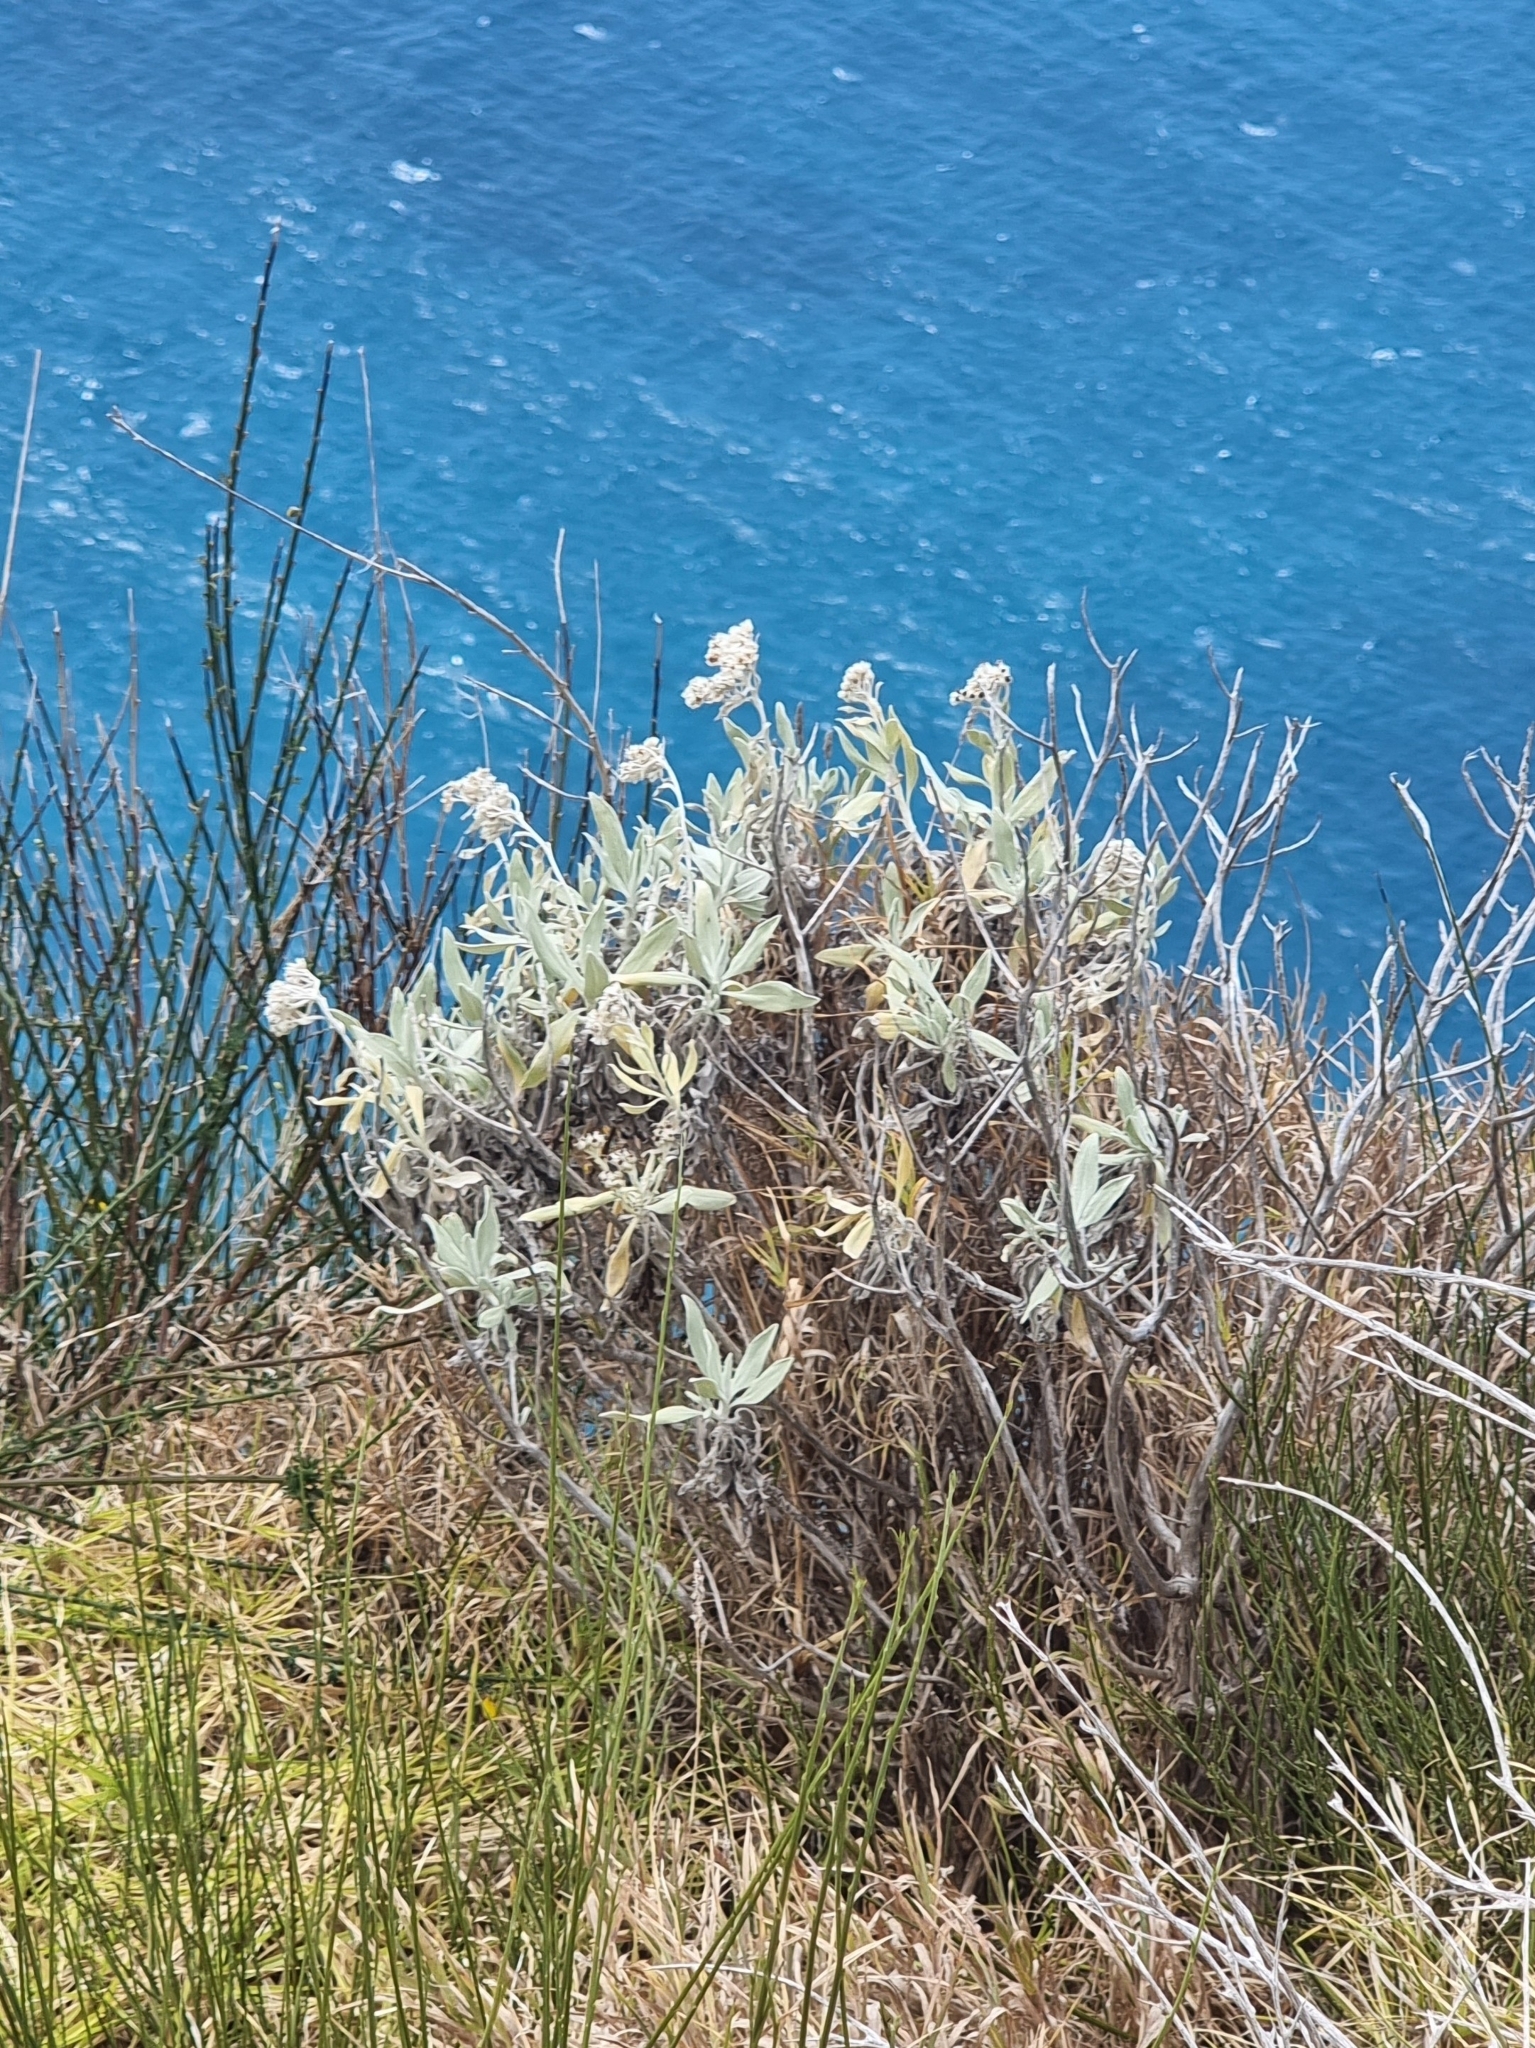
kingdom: Plantae
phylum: Tracheophyta
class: Magnoliopsida
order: Asterales
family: Asteraceae
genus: Helichrysum
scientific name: Helichrysum melaleucum
